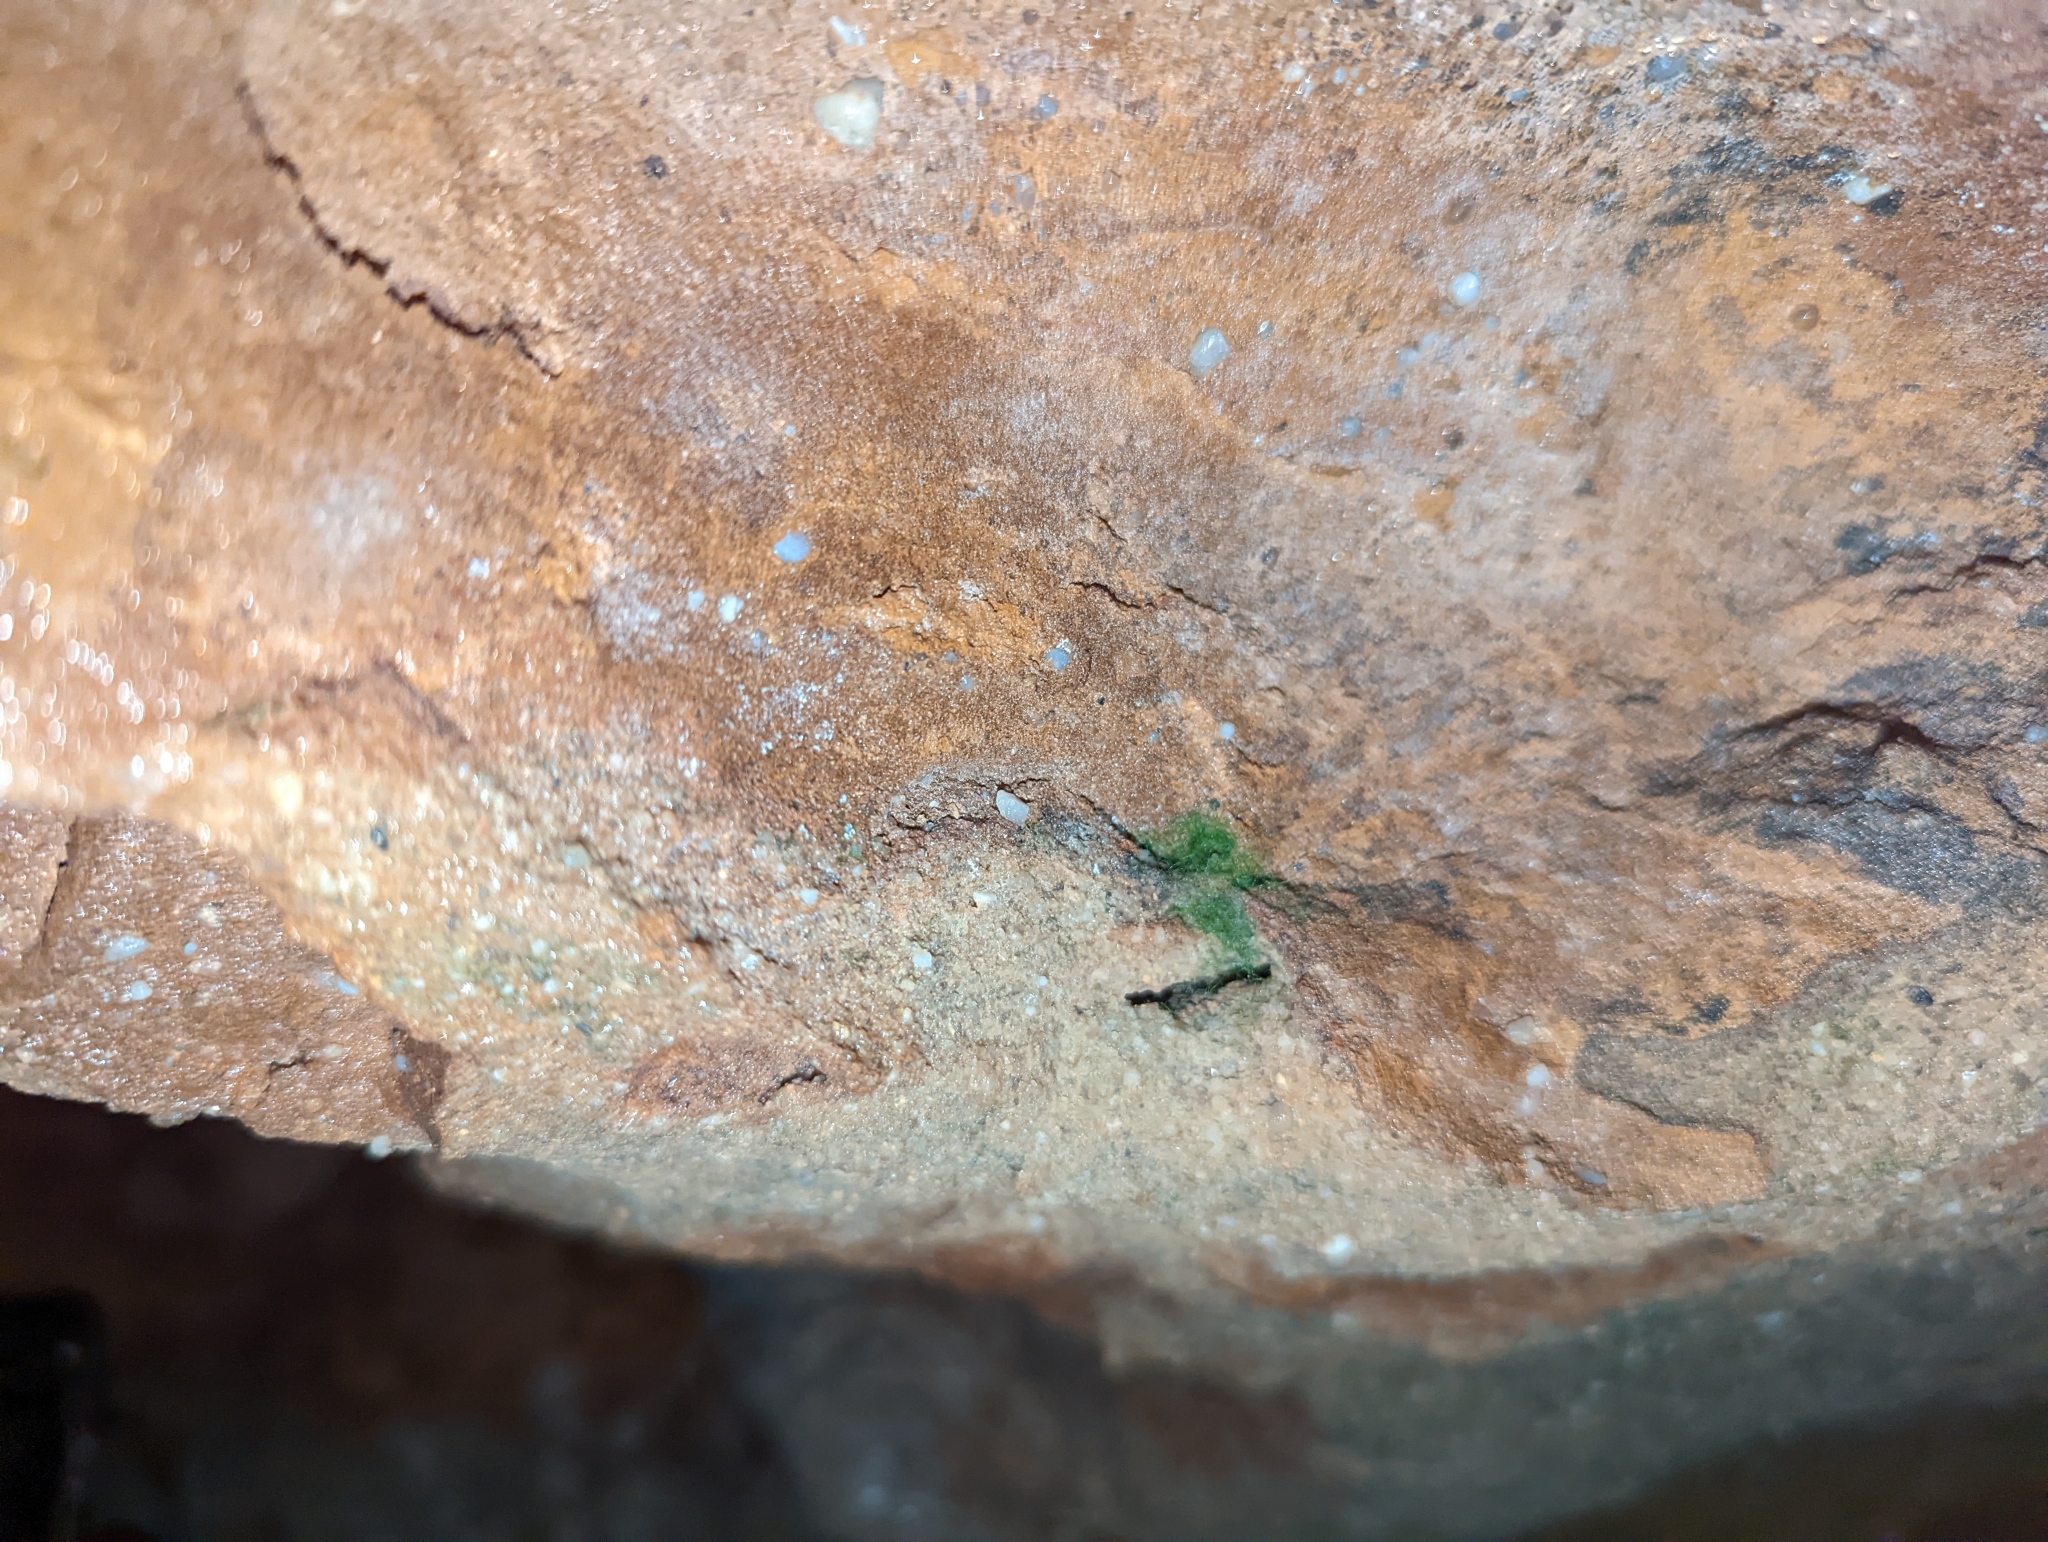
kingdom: Plantae
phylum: Tracheophyta
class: Polypodiopsida
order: Hymenophyllales
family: Hymenophyllaceae
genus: Crepidomanes
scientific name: Crepidomanes intricatum
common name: Weft fern
